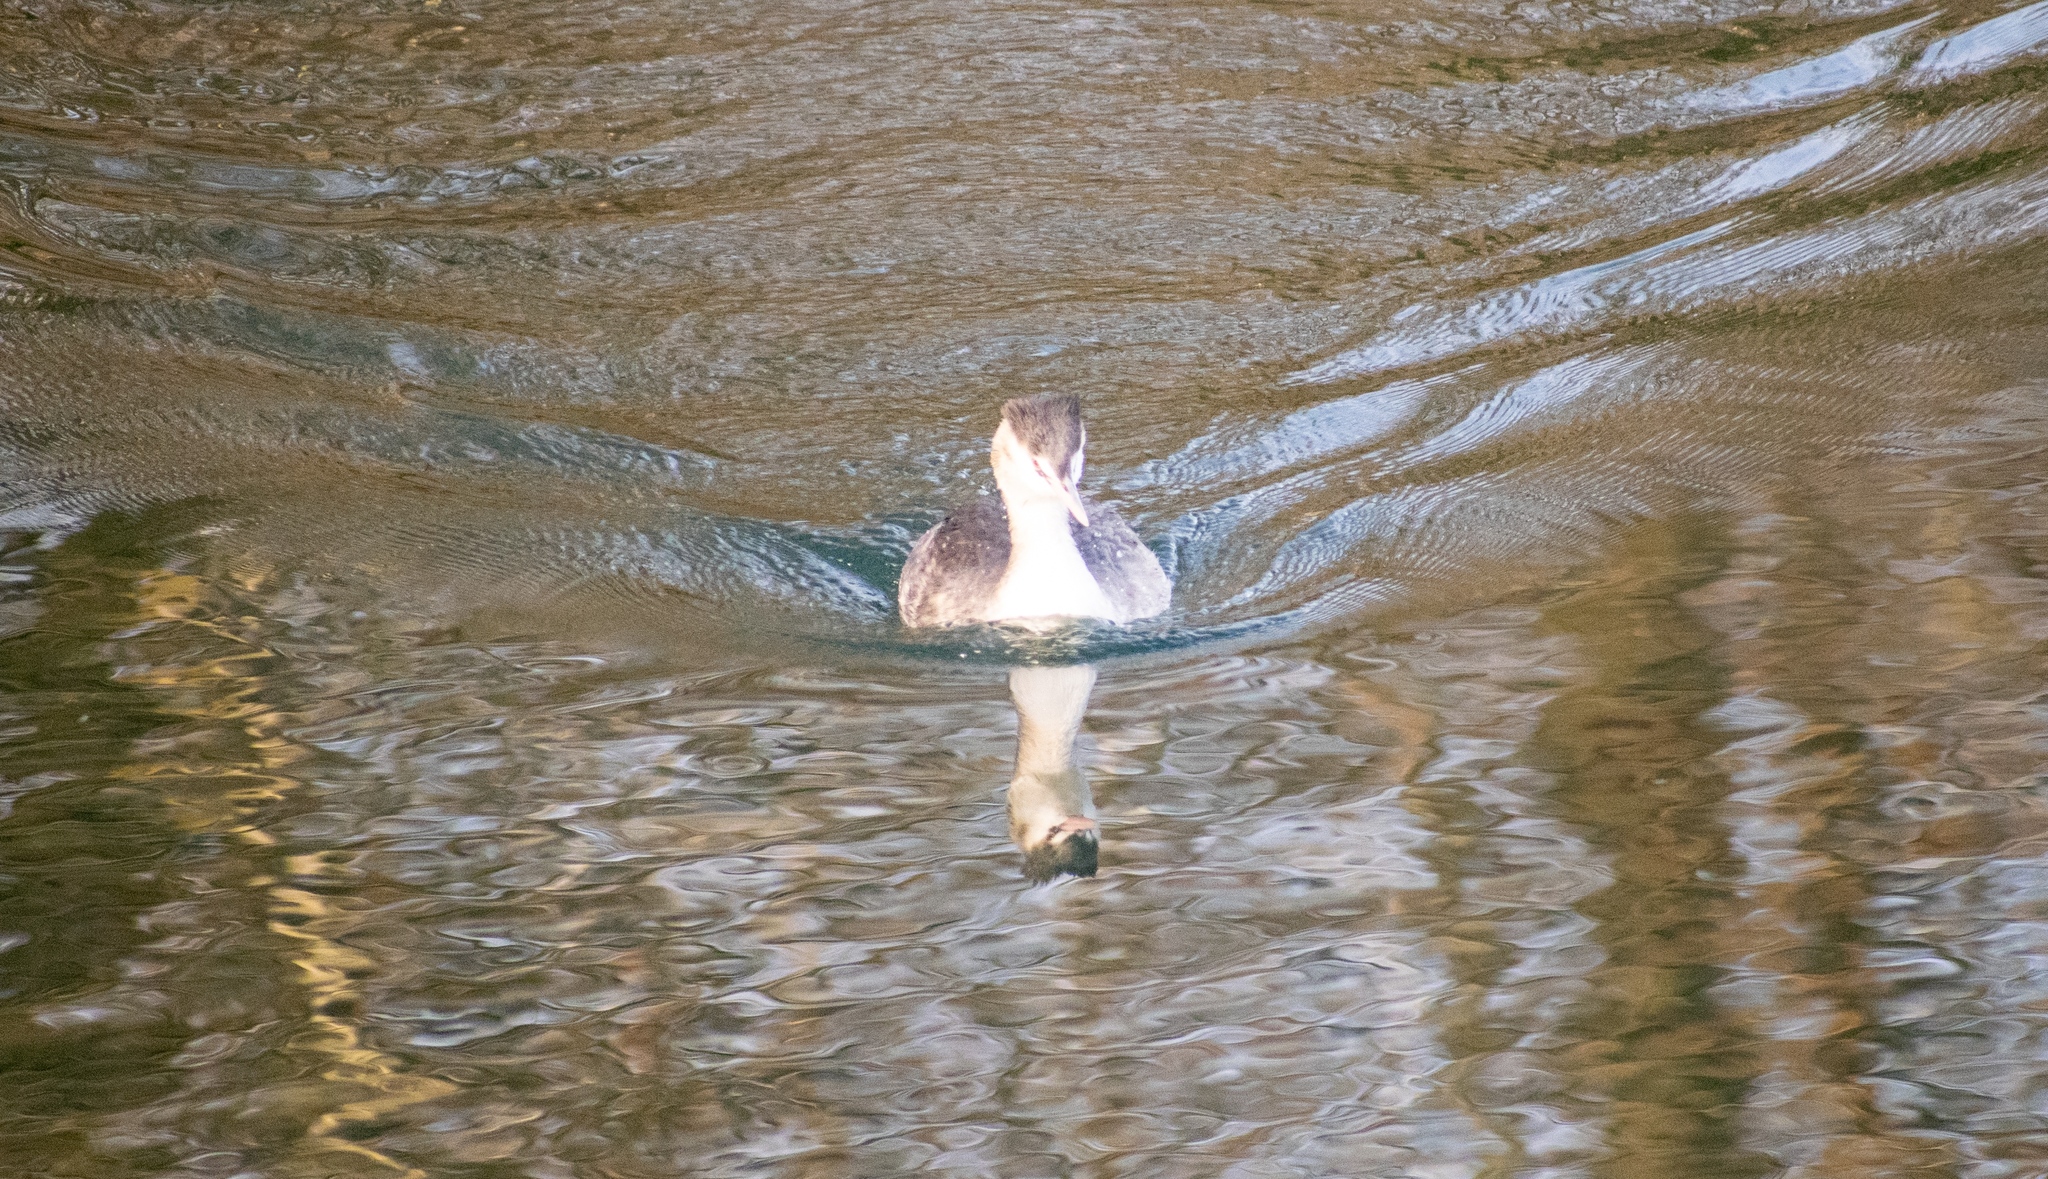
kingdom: Animalia
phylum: Chordata
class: Aves
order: Podicipediformes
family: Podicipedidae
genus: Podiceps
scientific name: Podiceps cristatus
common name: Great crested grebe
